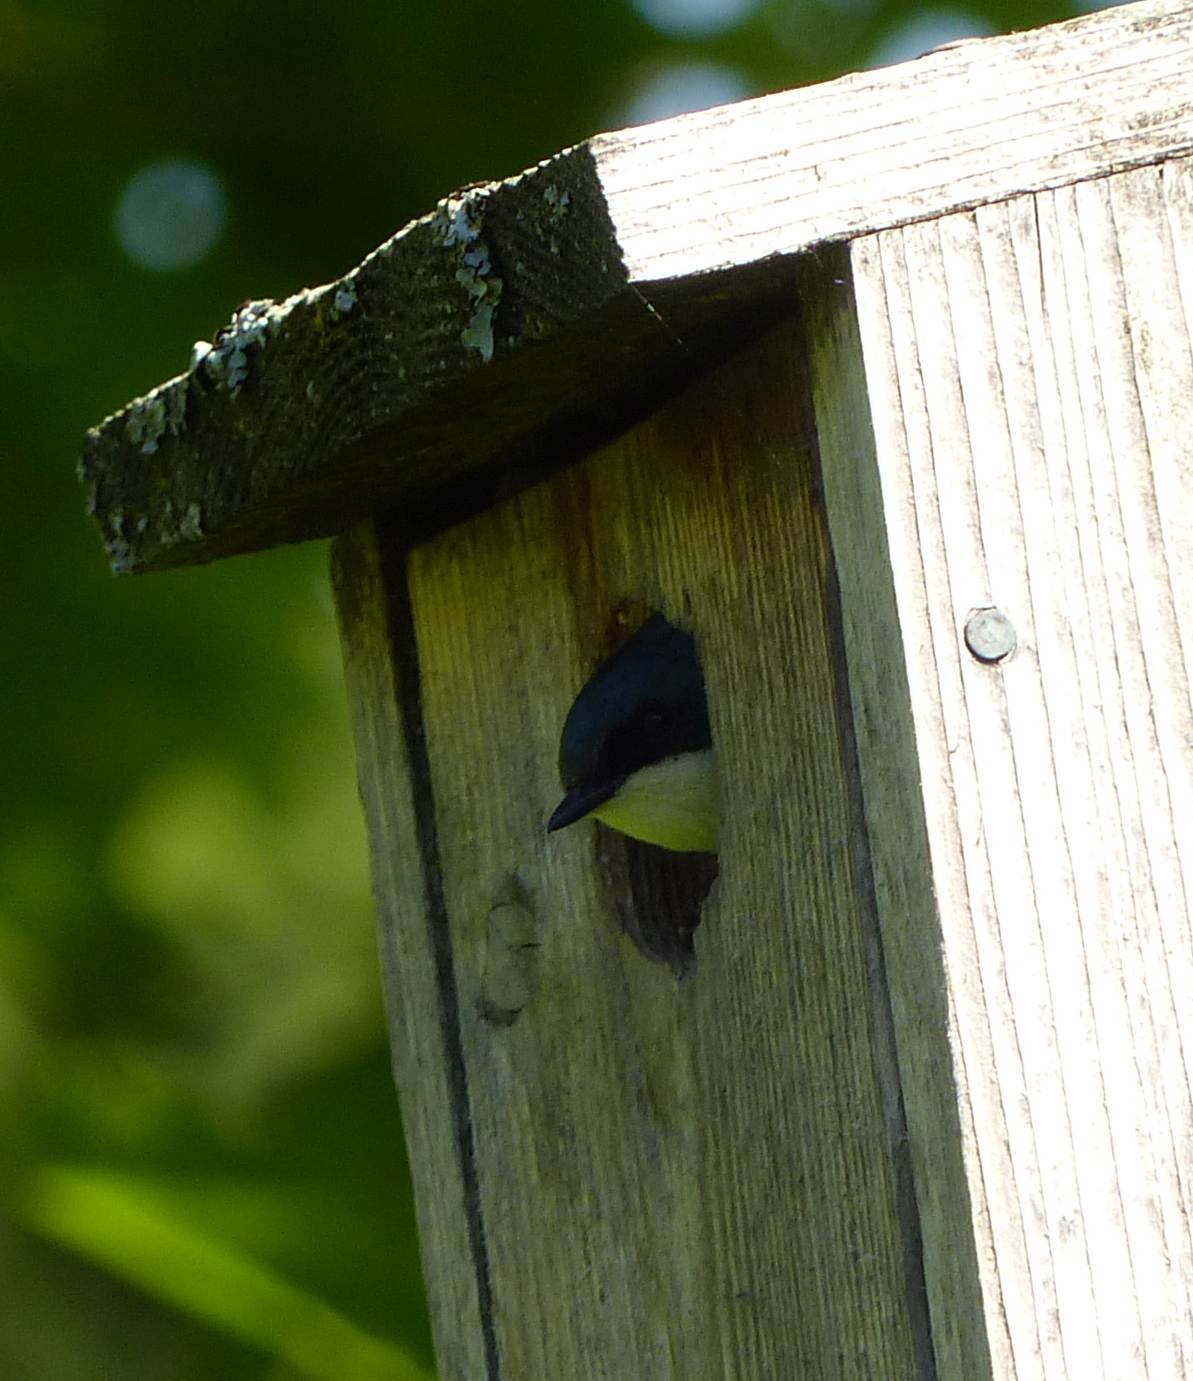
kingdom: Animalia
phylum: Chordata
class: Aves
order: Passeriformes
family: Hirundinidae
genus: Tachycineta
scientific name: Tachycineta bicolor
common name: Tree swallow
